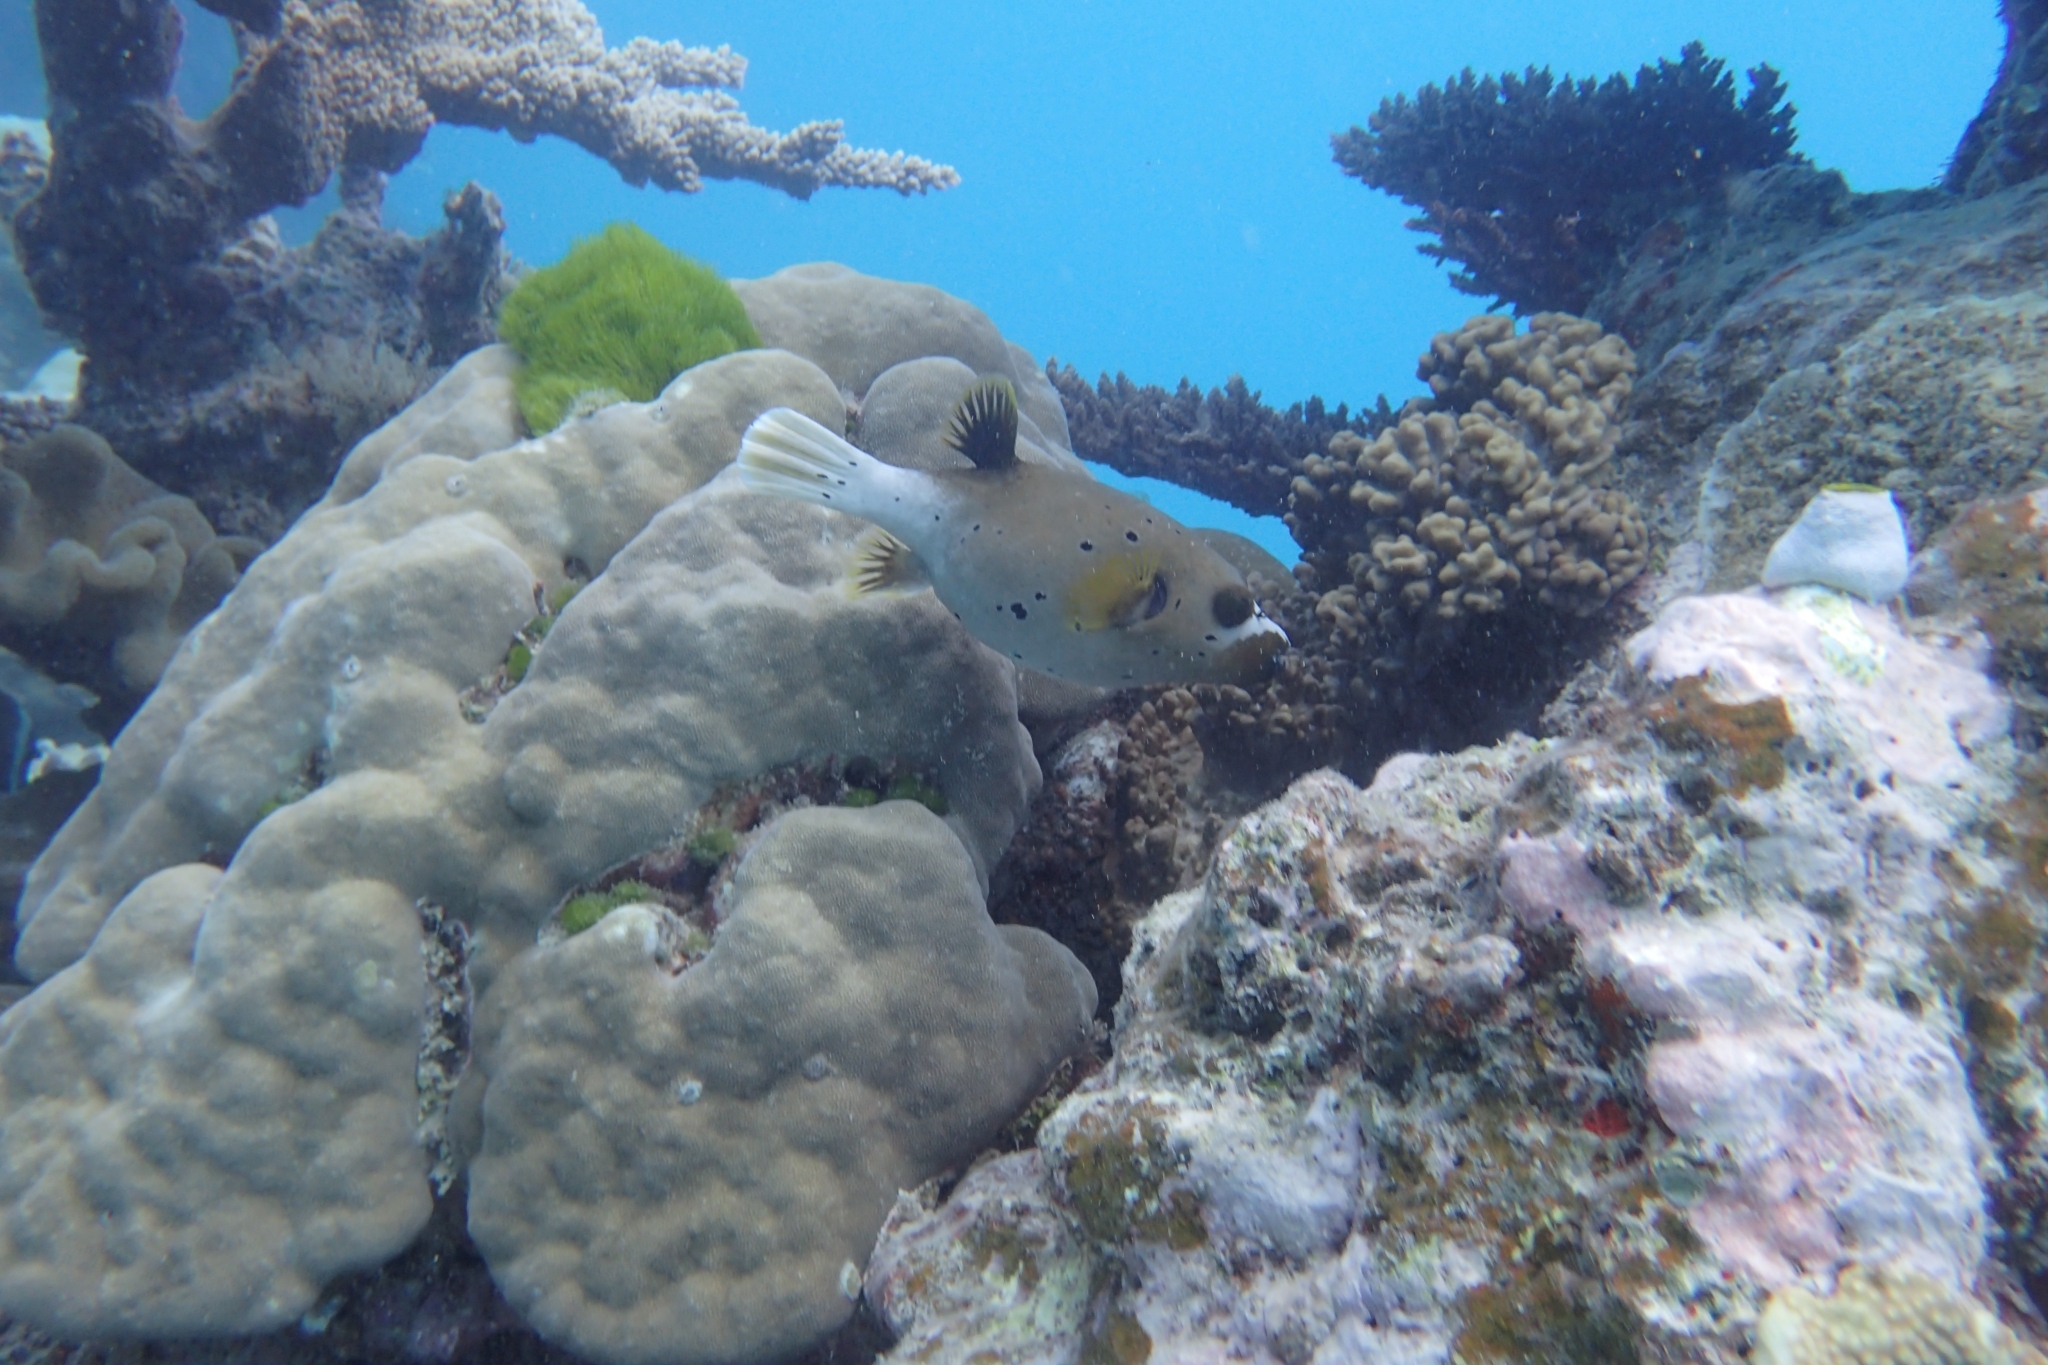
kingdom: Animalia
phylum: Chordata
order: Tetraodontiformes
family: Tetraodontidae
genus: Arothron
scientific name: Arothron nigropunctatus
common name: Black spotted blow fish
